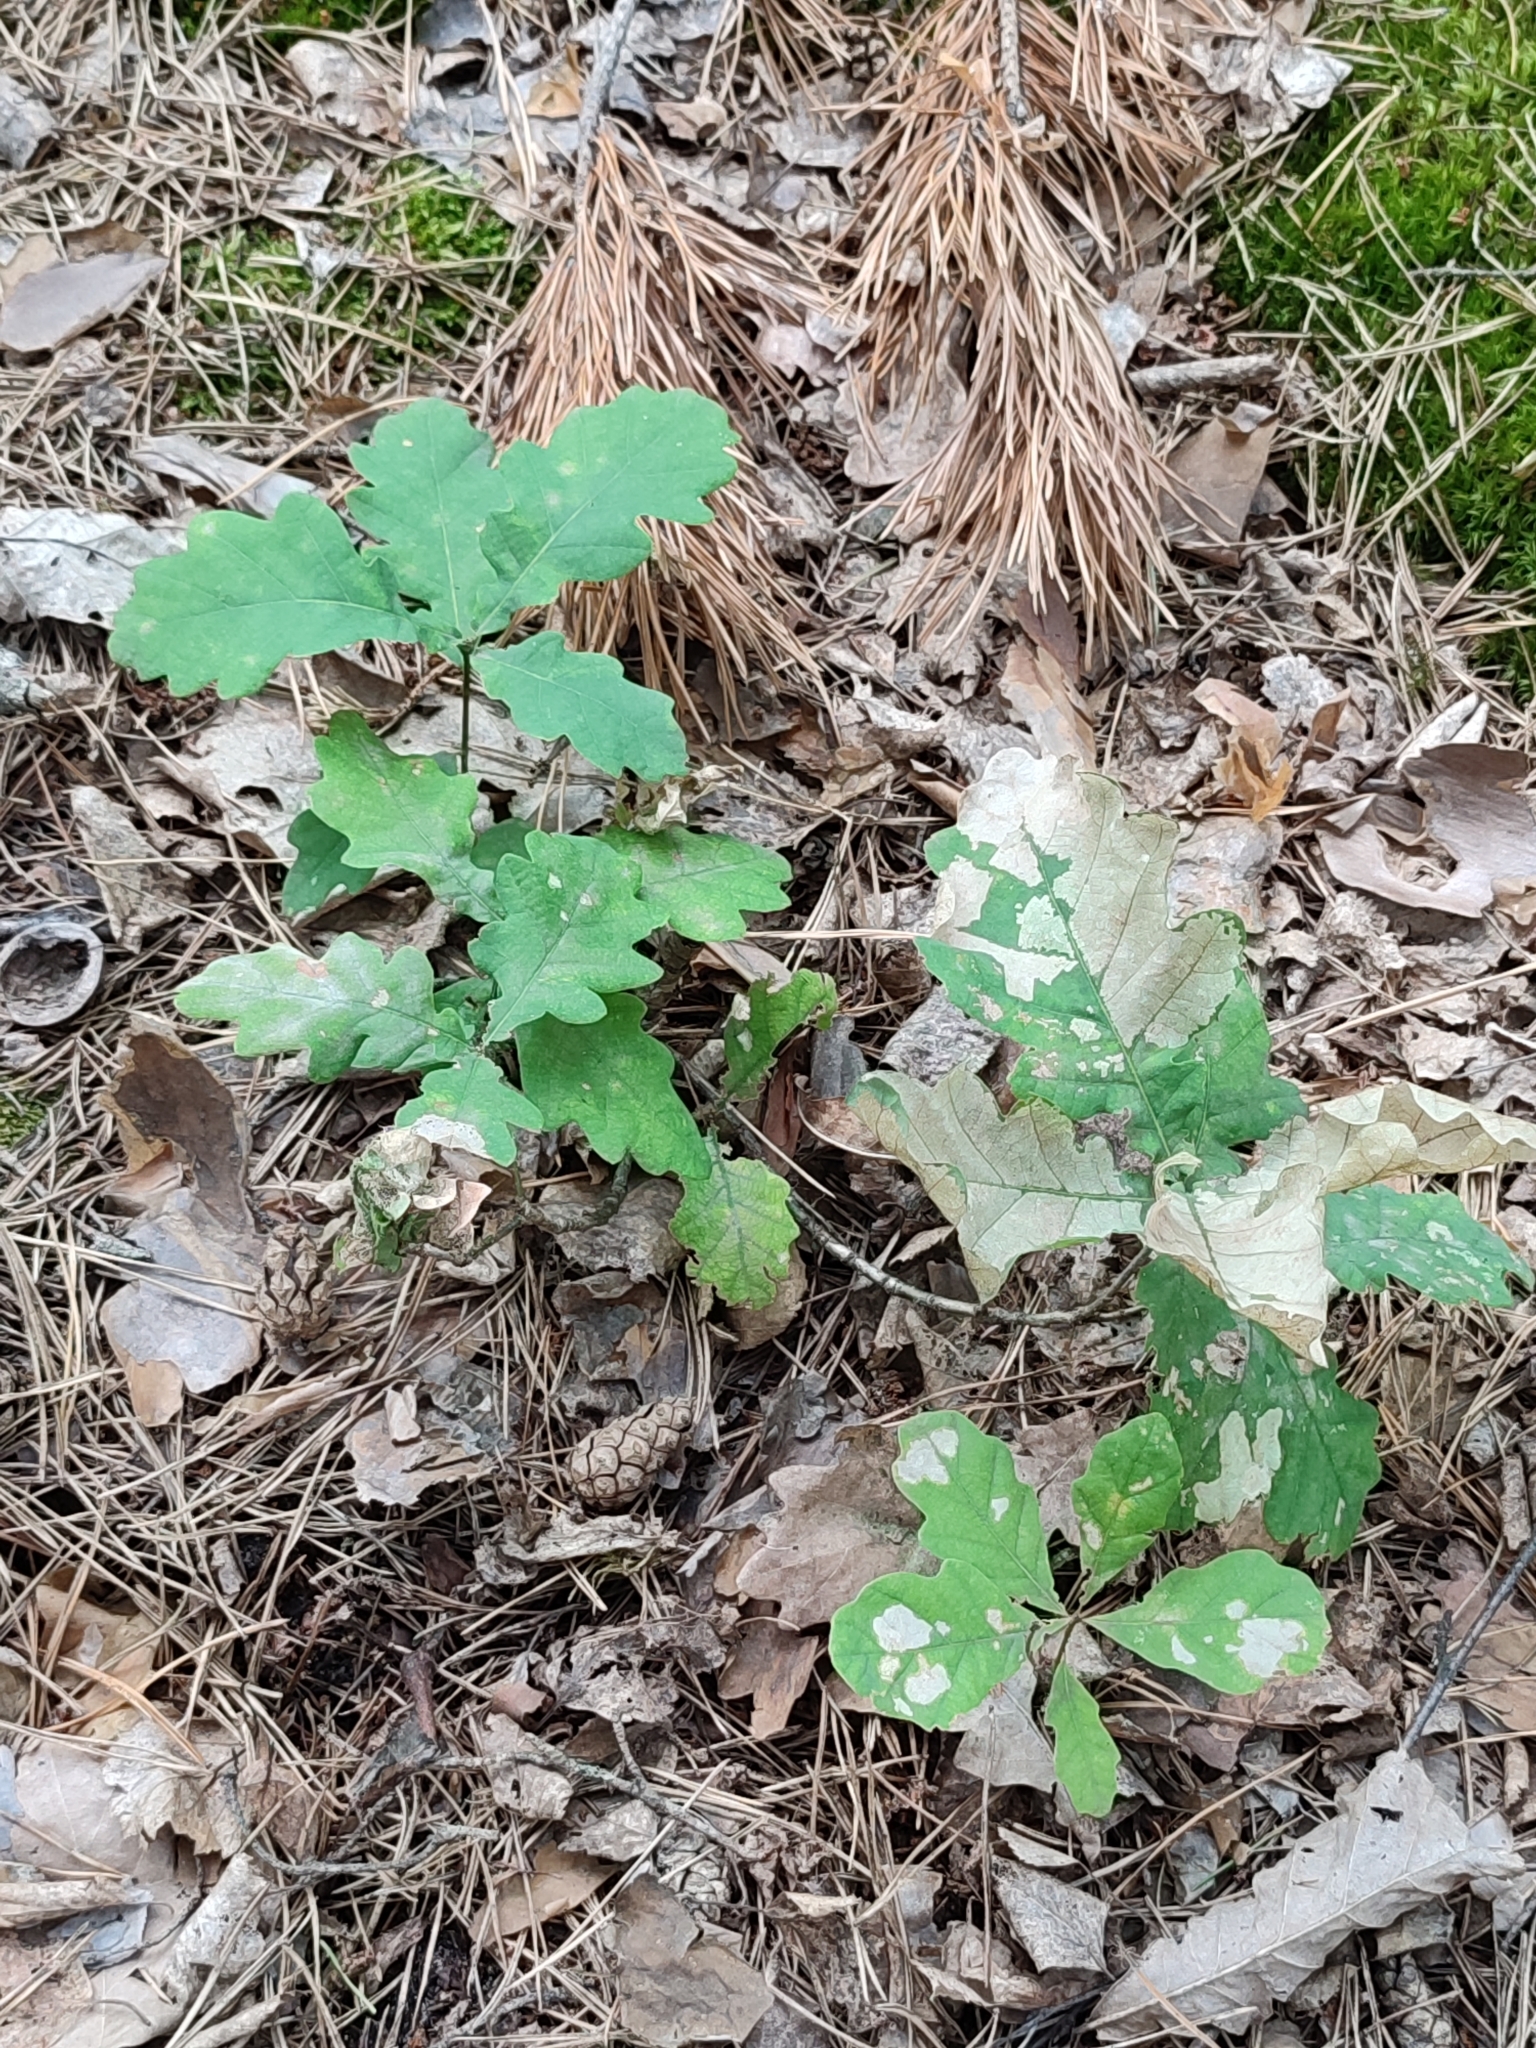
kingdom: Plantae
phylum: Tracheophyta
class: Magnoliopsida
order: Fagales
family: Fagaceae
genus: Quercus
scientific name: Quercus robur
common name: Pedunculate oak
